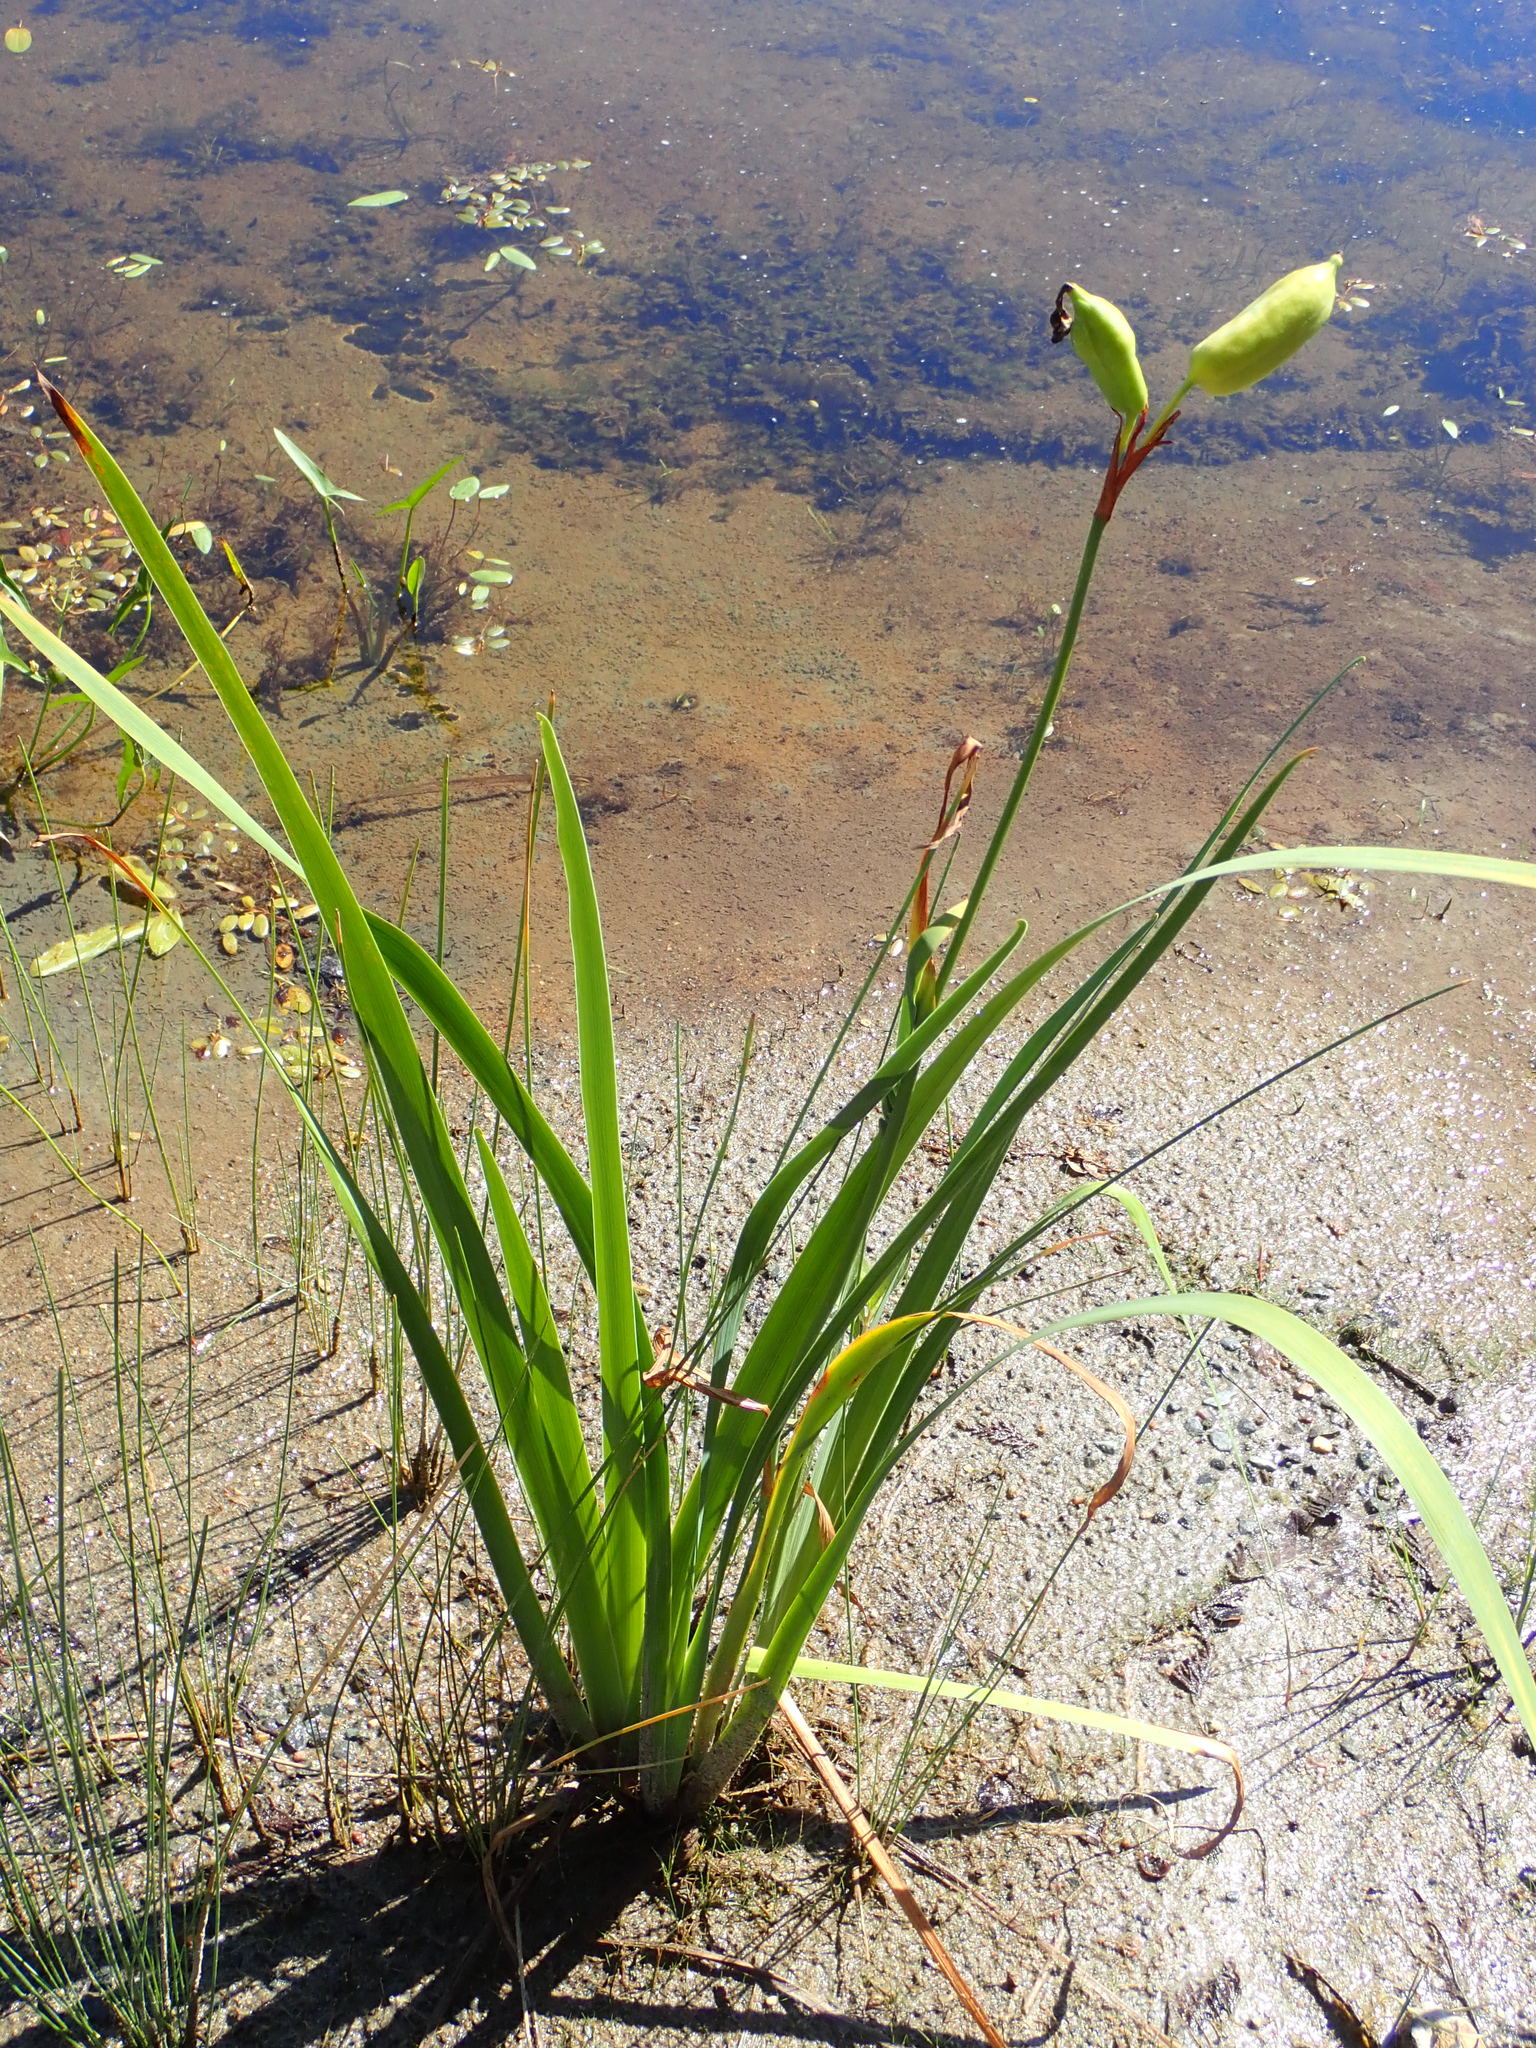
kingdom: Plantae
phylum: Tracheophyta
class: Liliopsida
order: Asparagales
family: Iridaceae
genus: Iris
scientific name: Iris versicolor
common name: Purple iris
